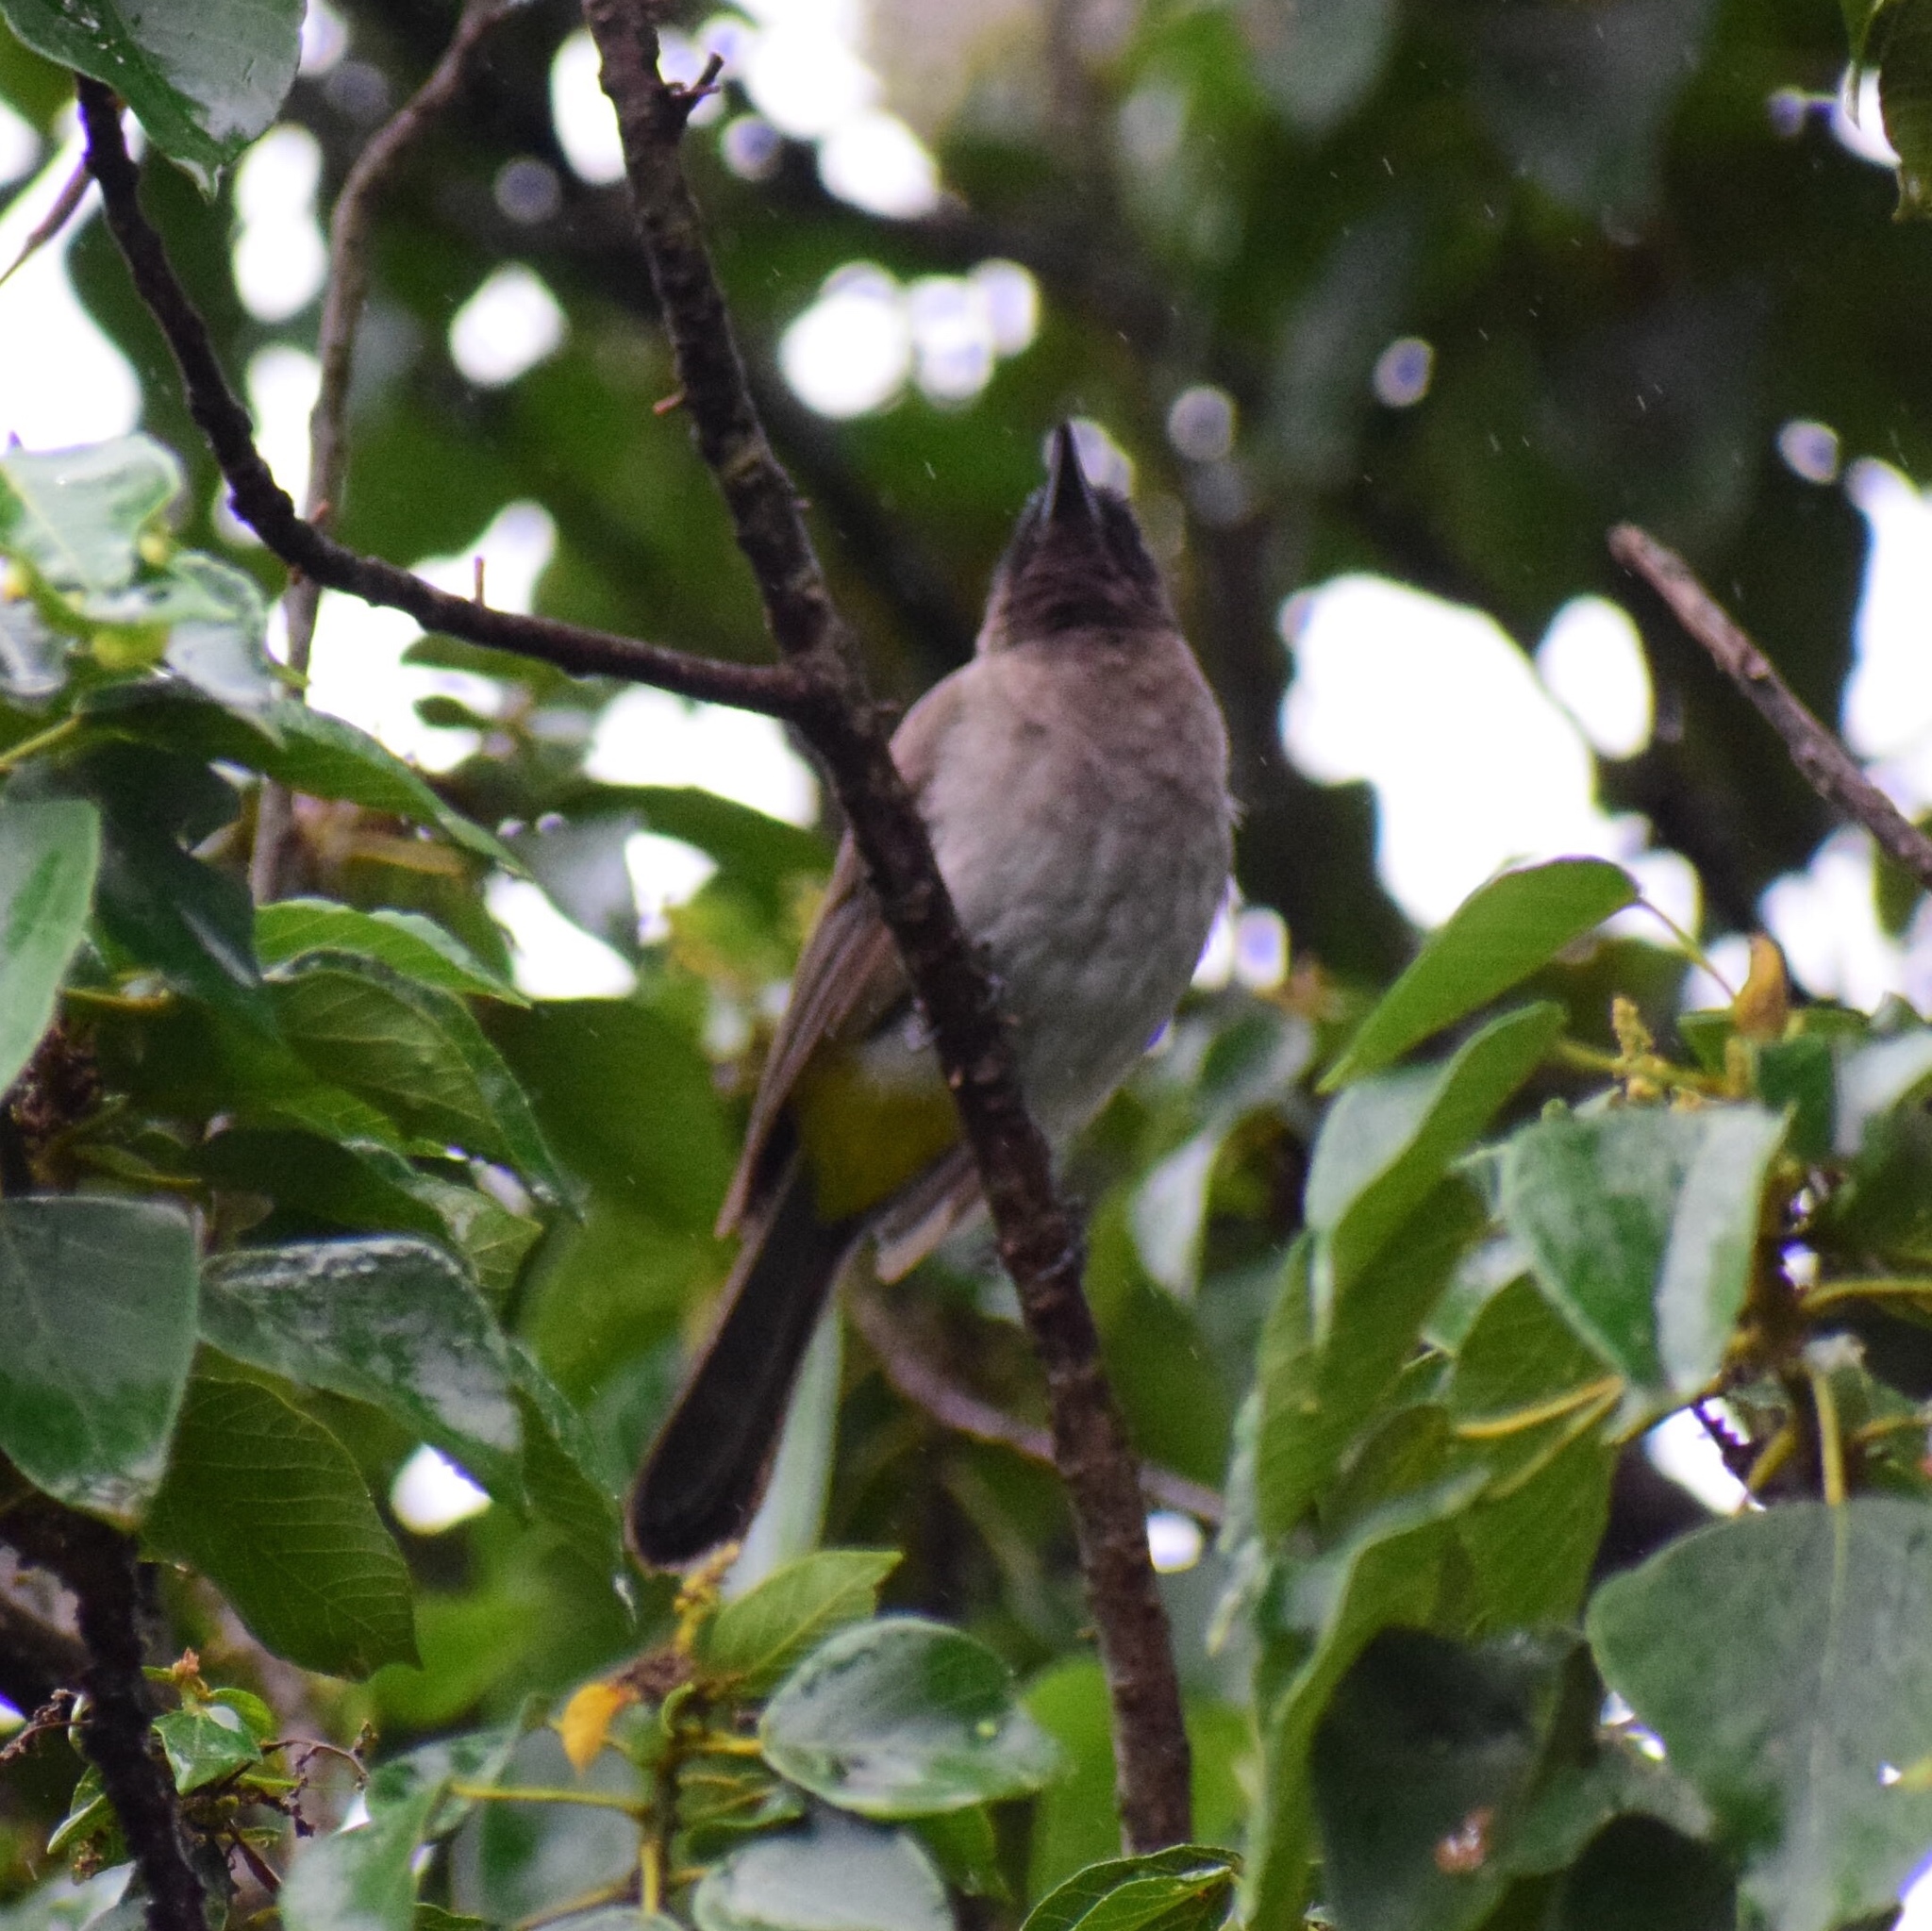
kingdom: Animalia
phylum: Chordata
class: Aves
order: Passeriformes
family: Pycnonotidae
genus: Pycnonotus
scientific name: Pycnonotus barbatus
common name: Common bulbul
